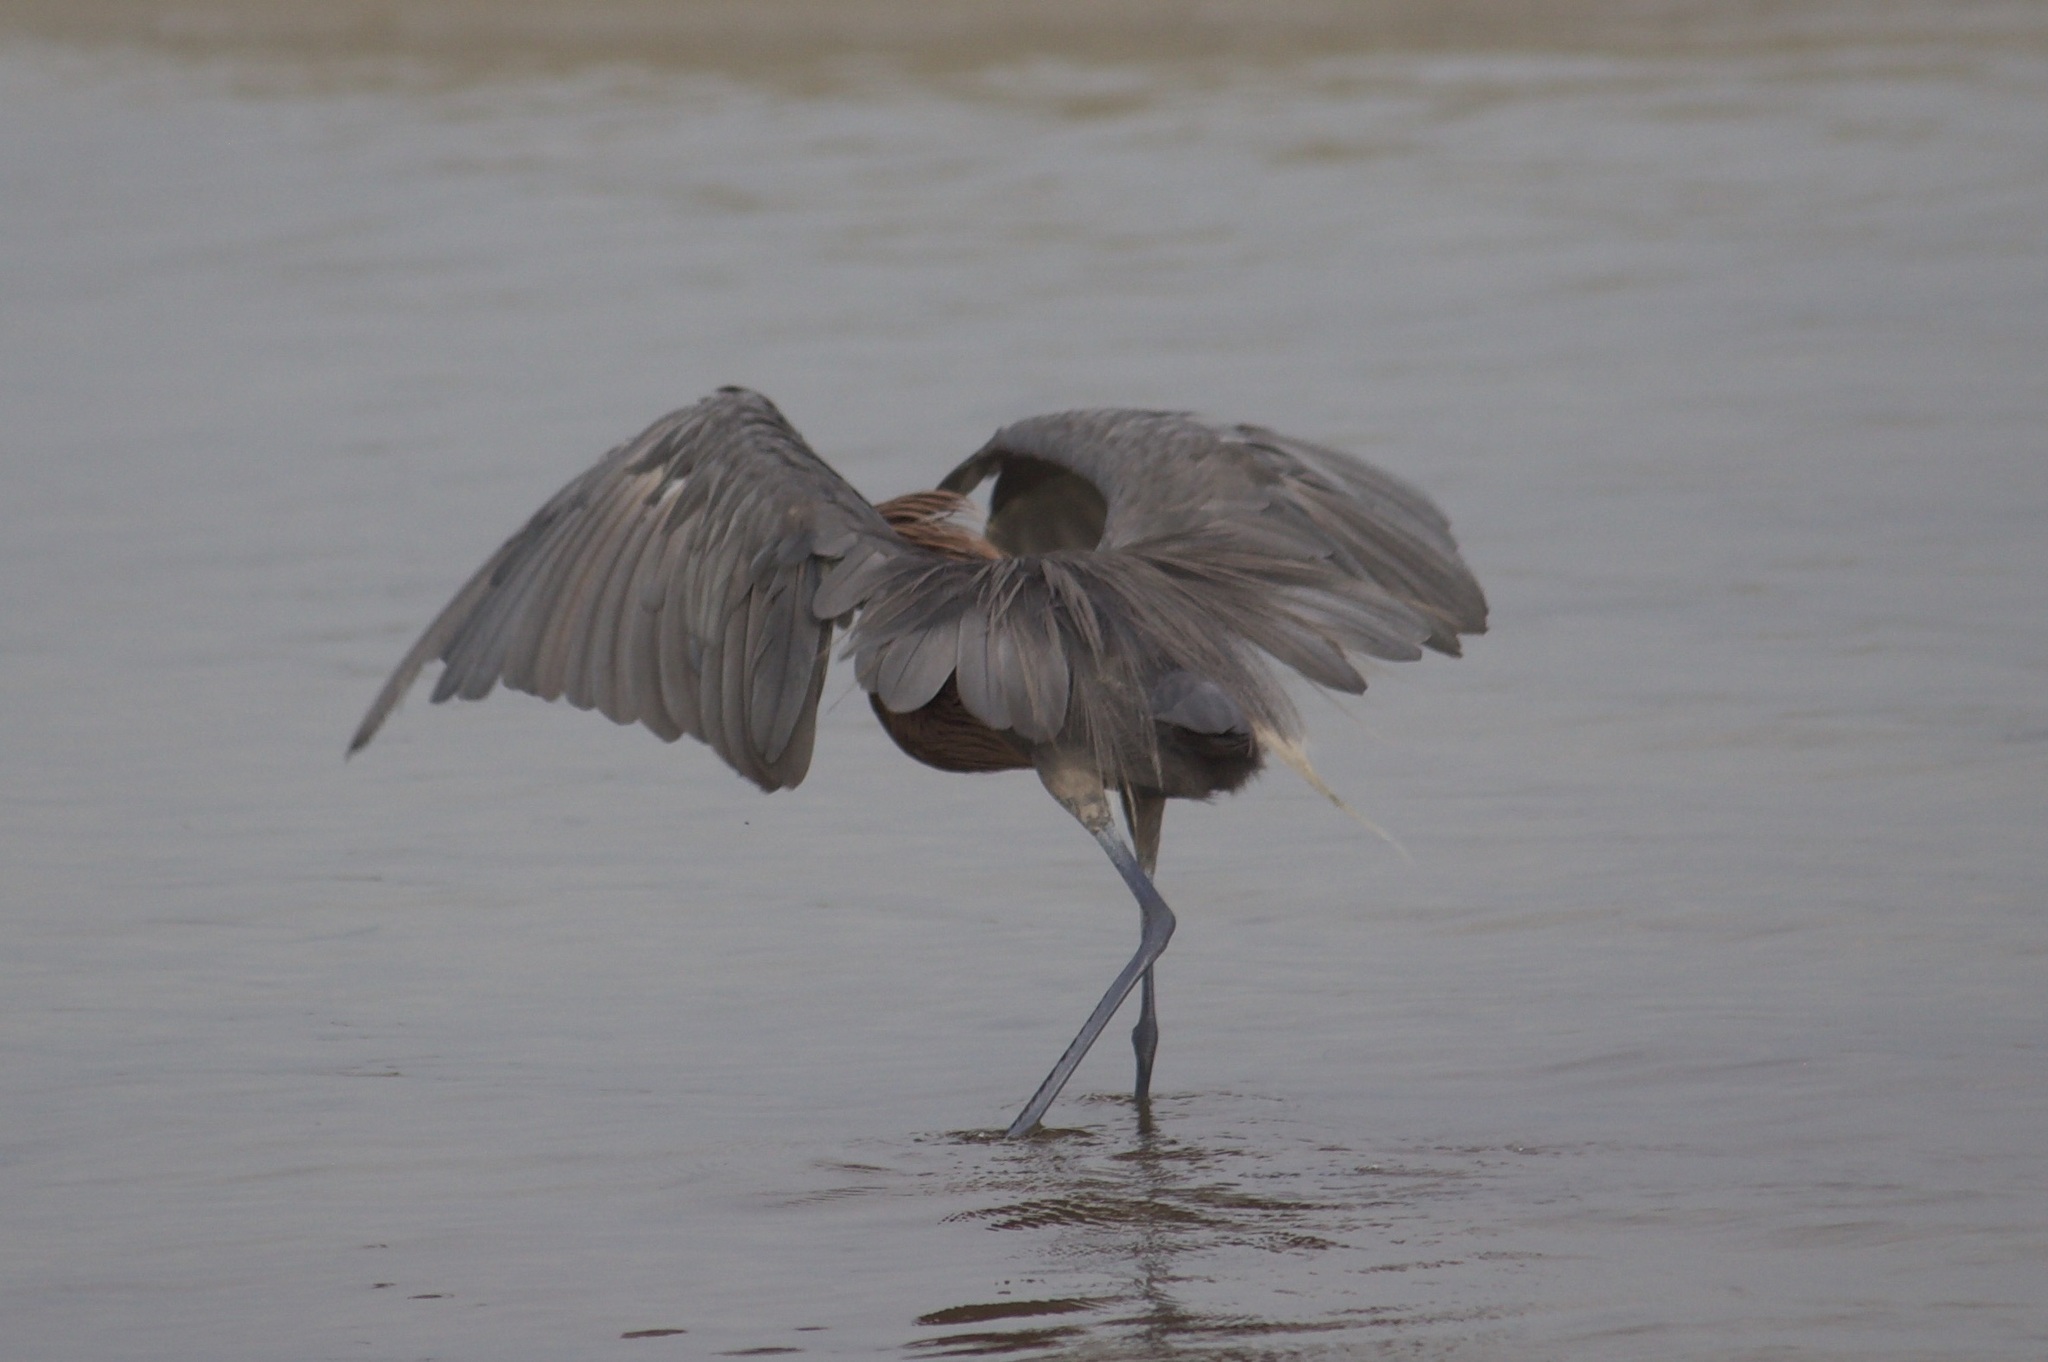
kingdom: Animalia
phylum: Chordata
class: Aves
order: Pelecaniformes
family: Ardeidae
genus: Egretta
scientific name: Egretta rufescens
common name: Reddish egret
